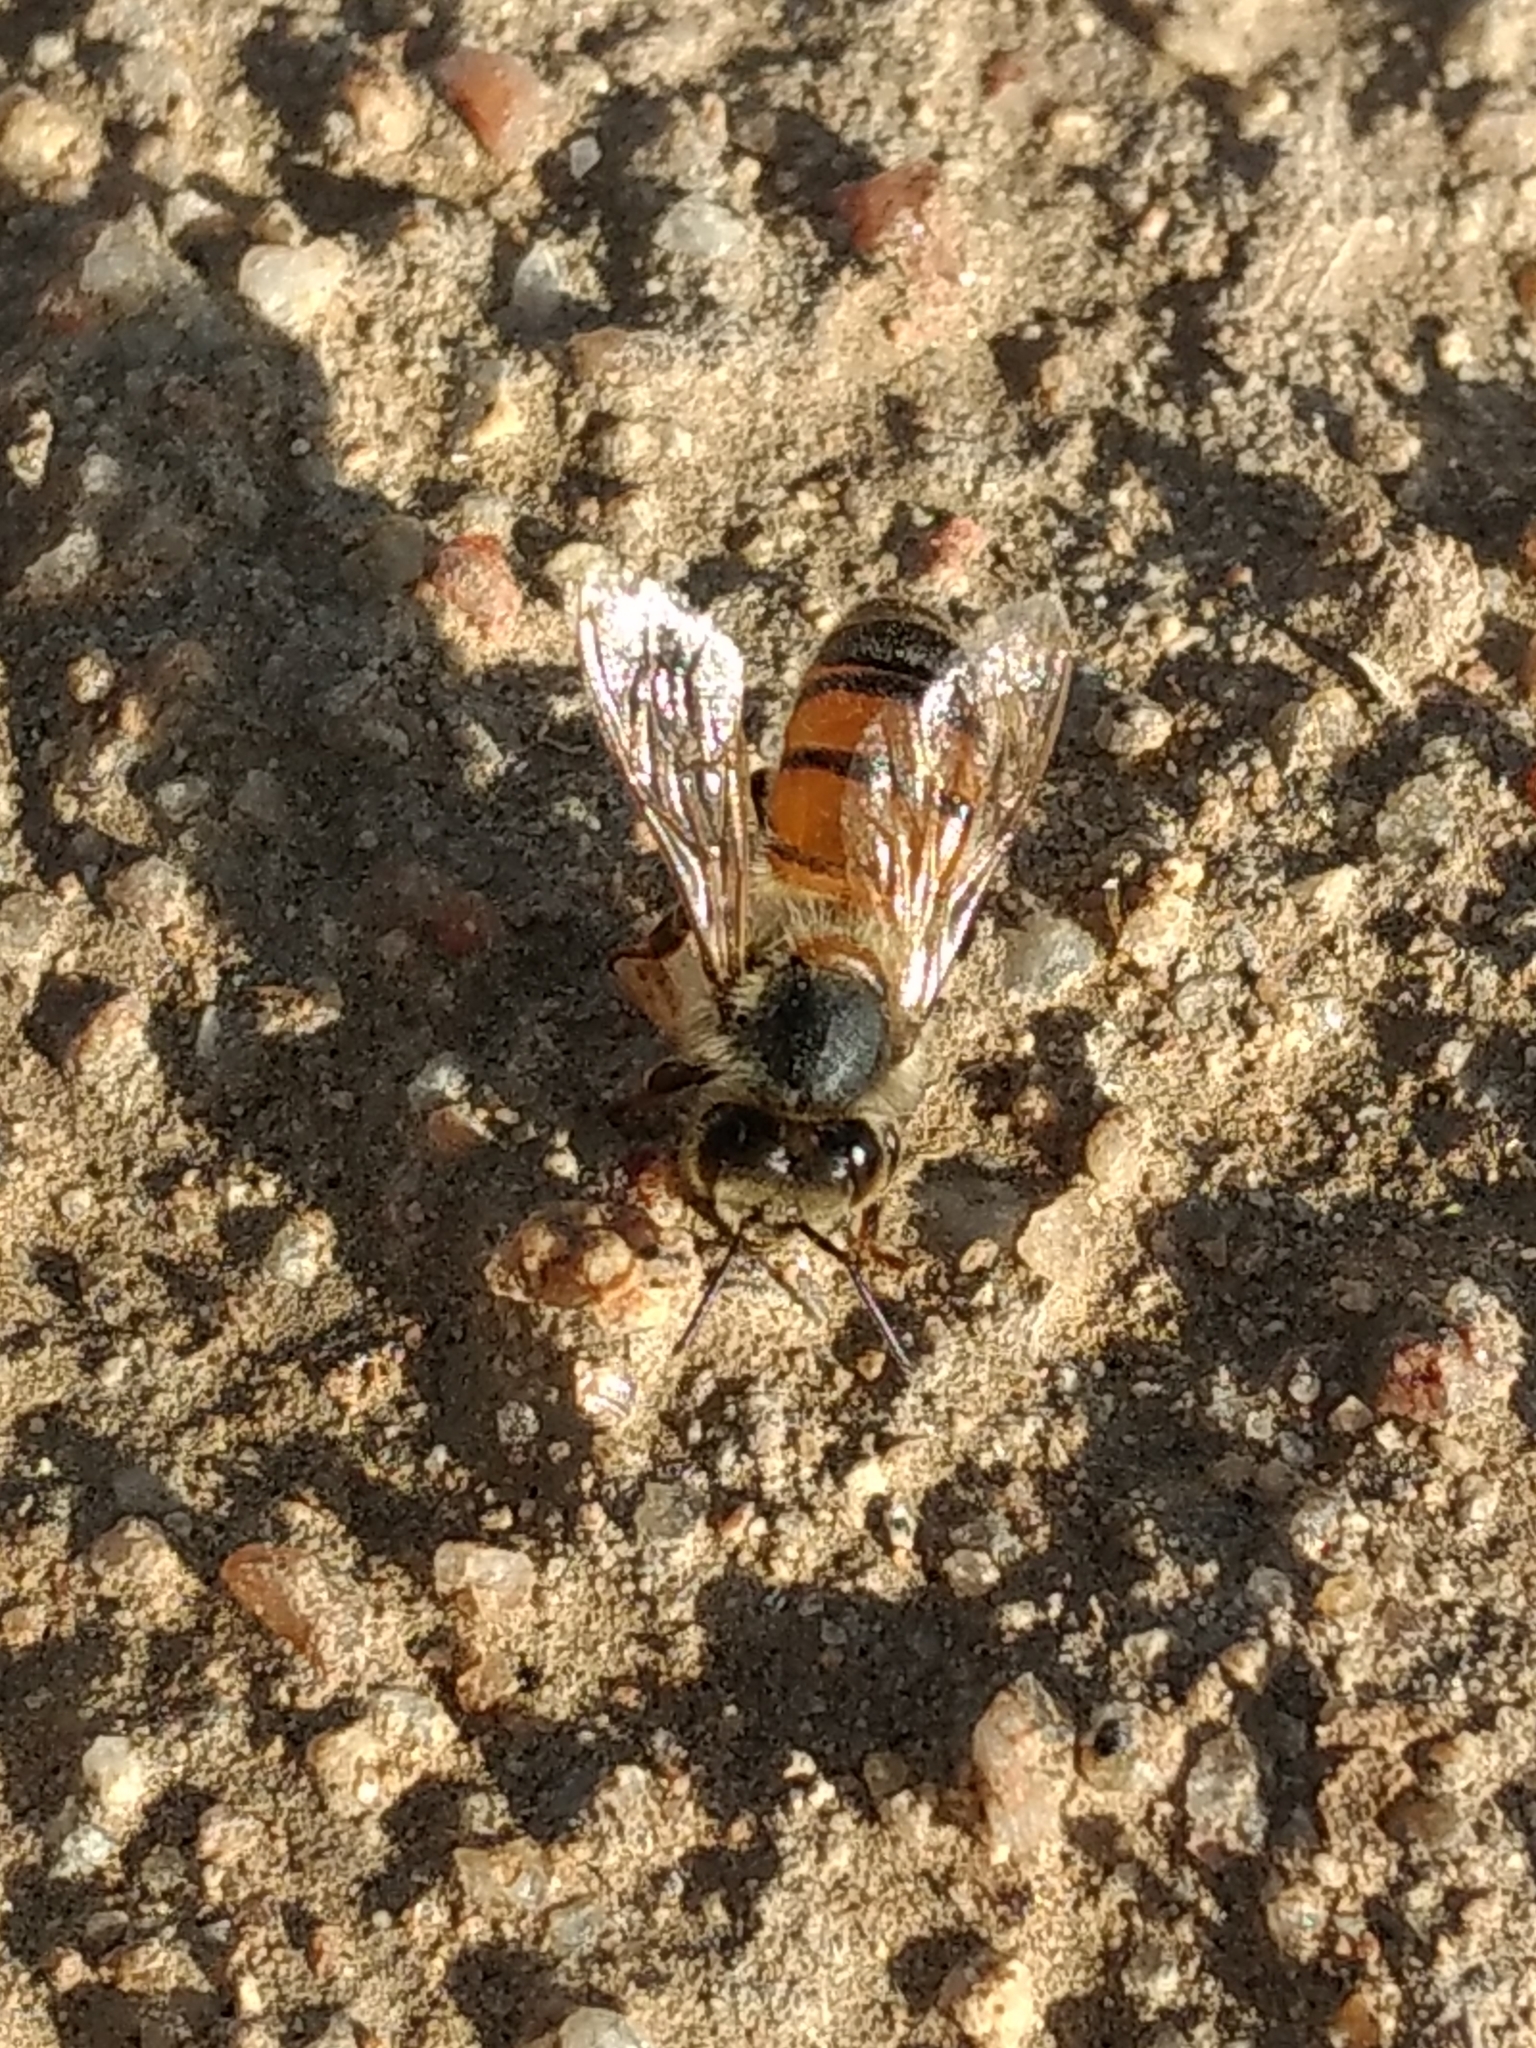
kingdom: Animalia
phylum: Arthropoda
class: Insecta
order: Hymenoptera
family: Apidae
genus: Apis
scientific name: Apis mellifera
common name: Honey bee
